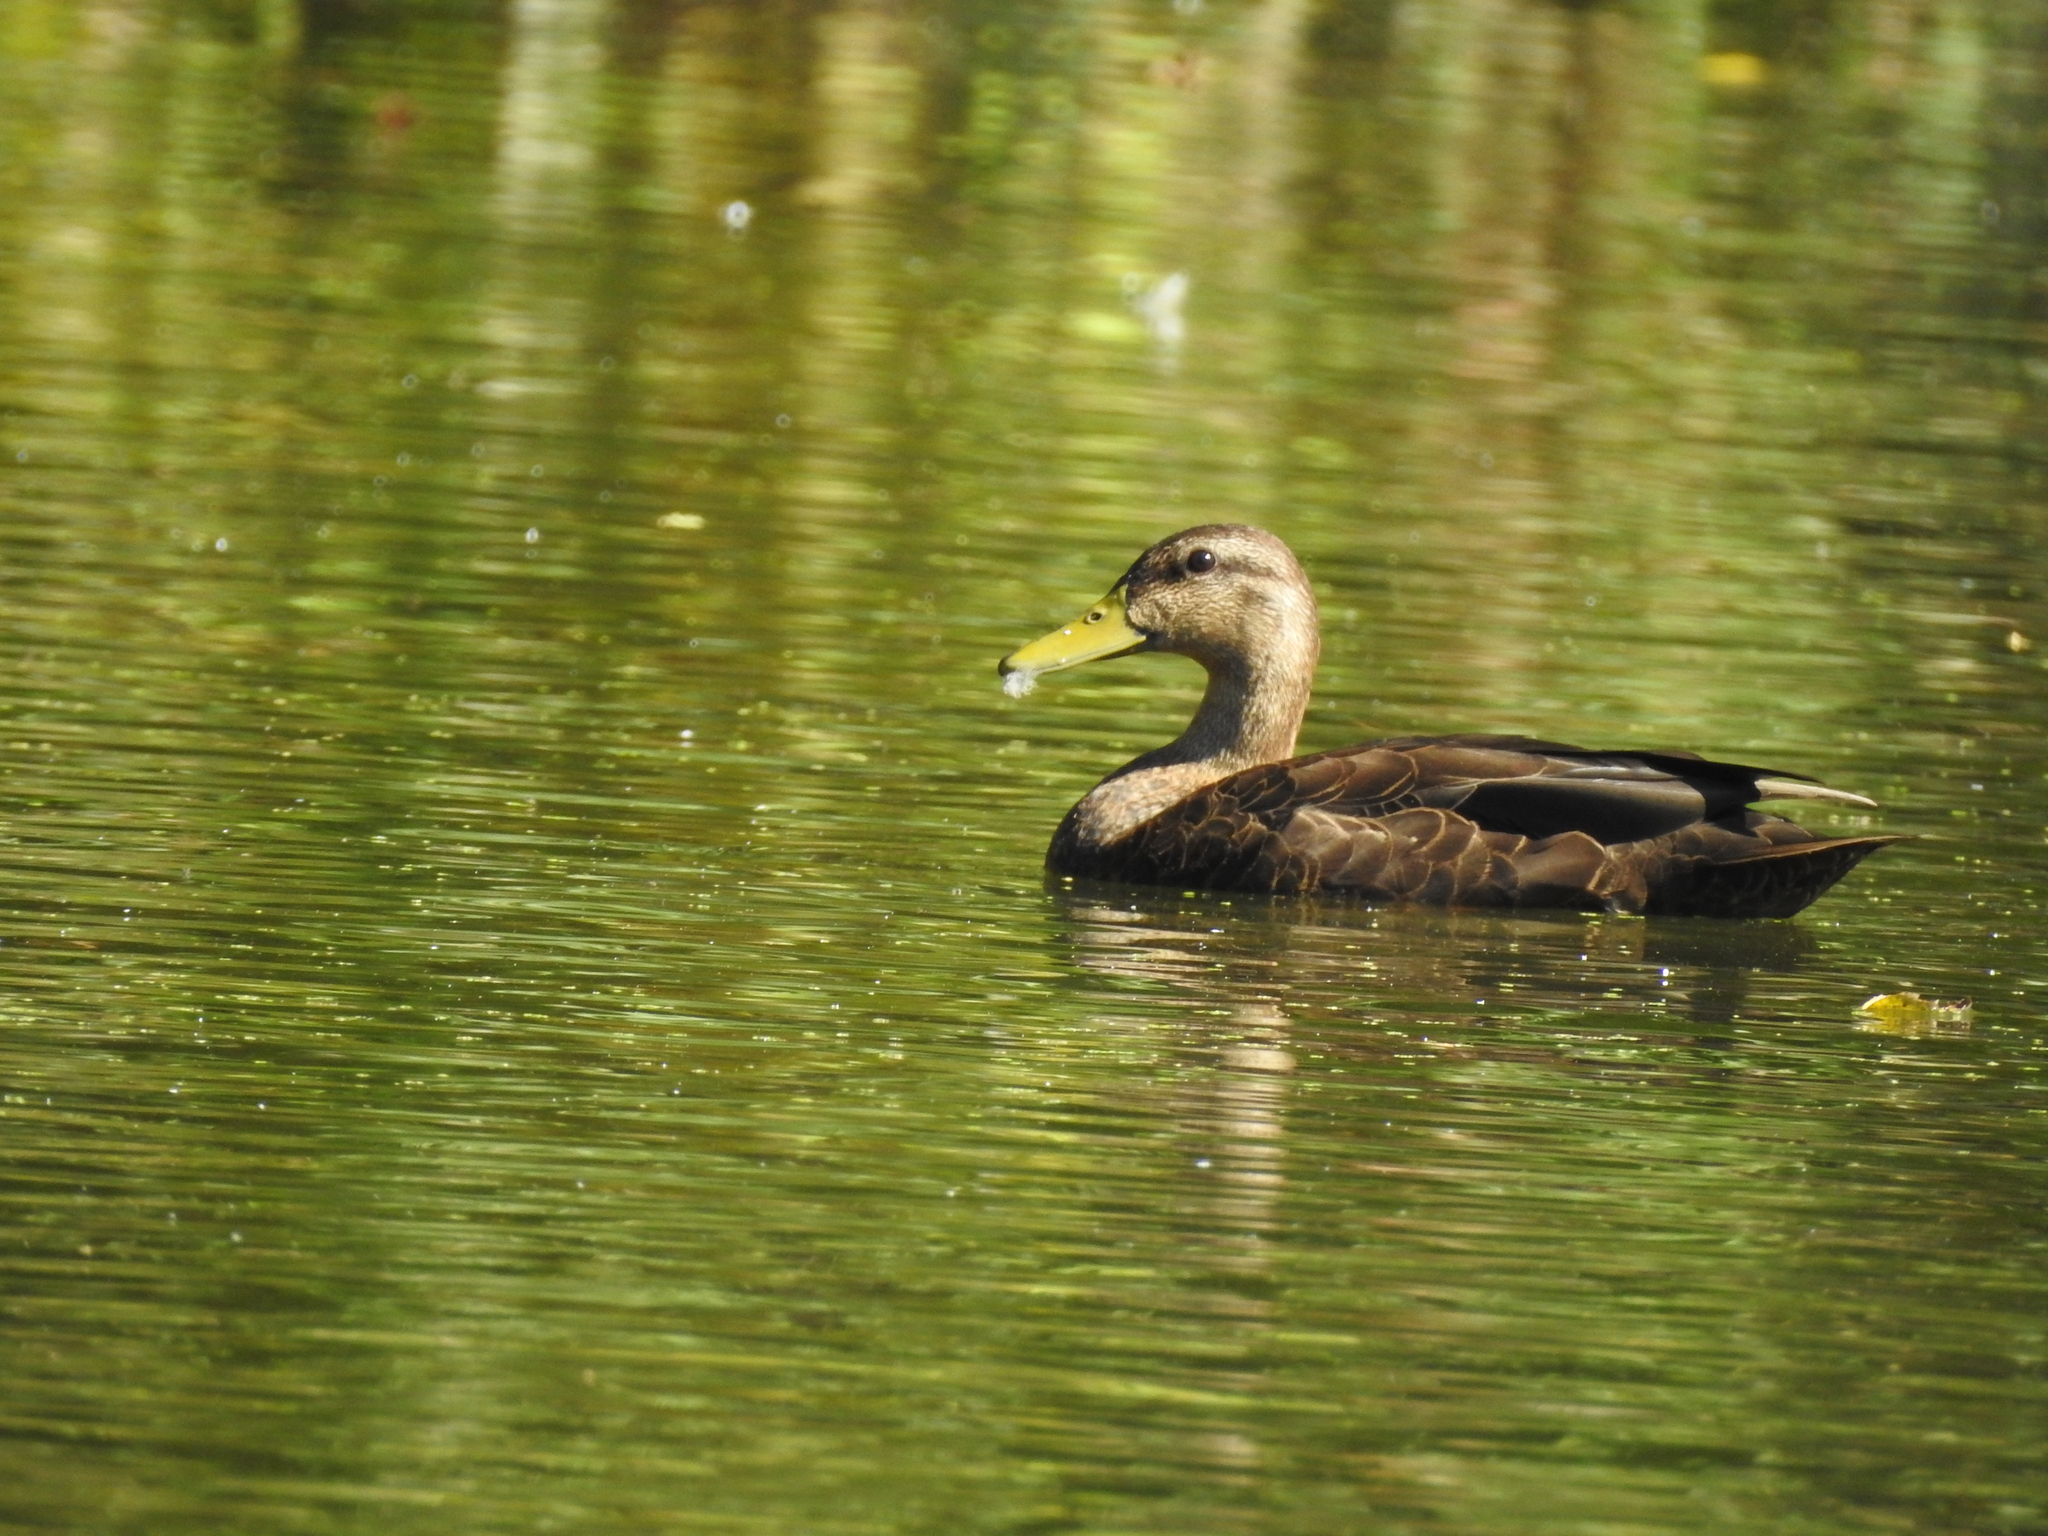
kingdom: Animalia
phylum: Chordata
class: Aves
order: Anseriformes
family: Anatidae
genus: Anas
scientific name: Anas rubripes
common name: American black duck
